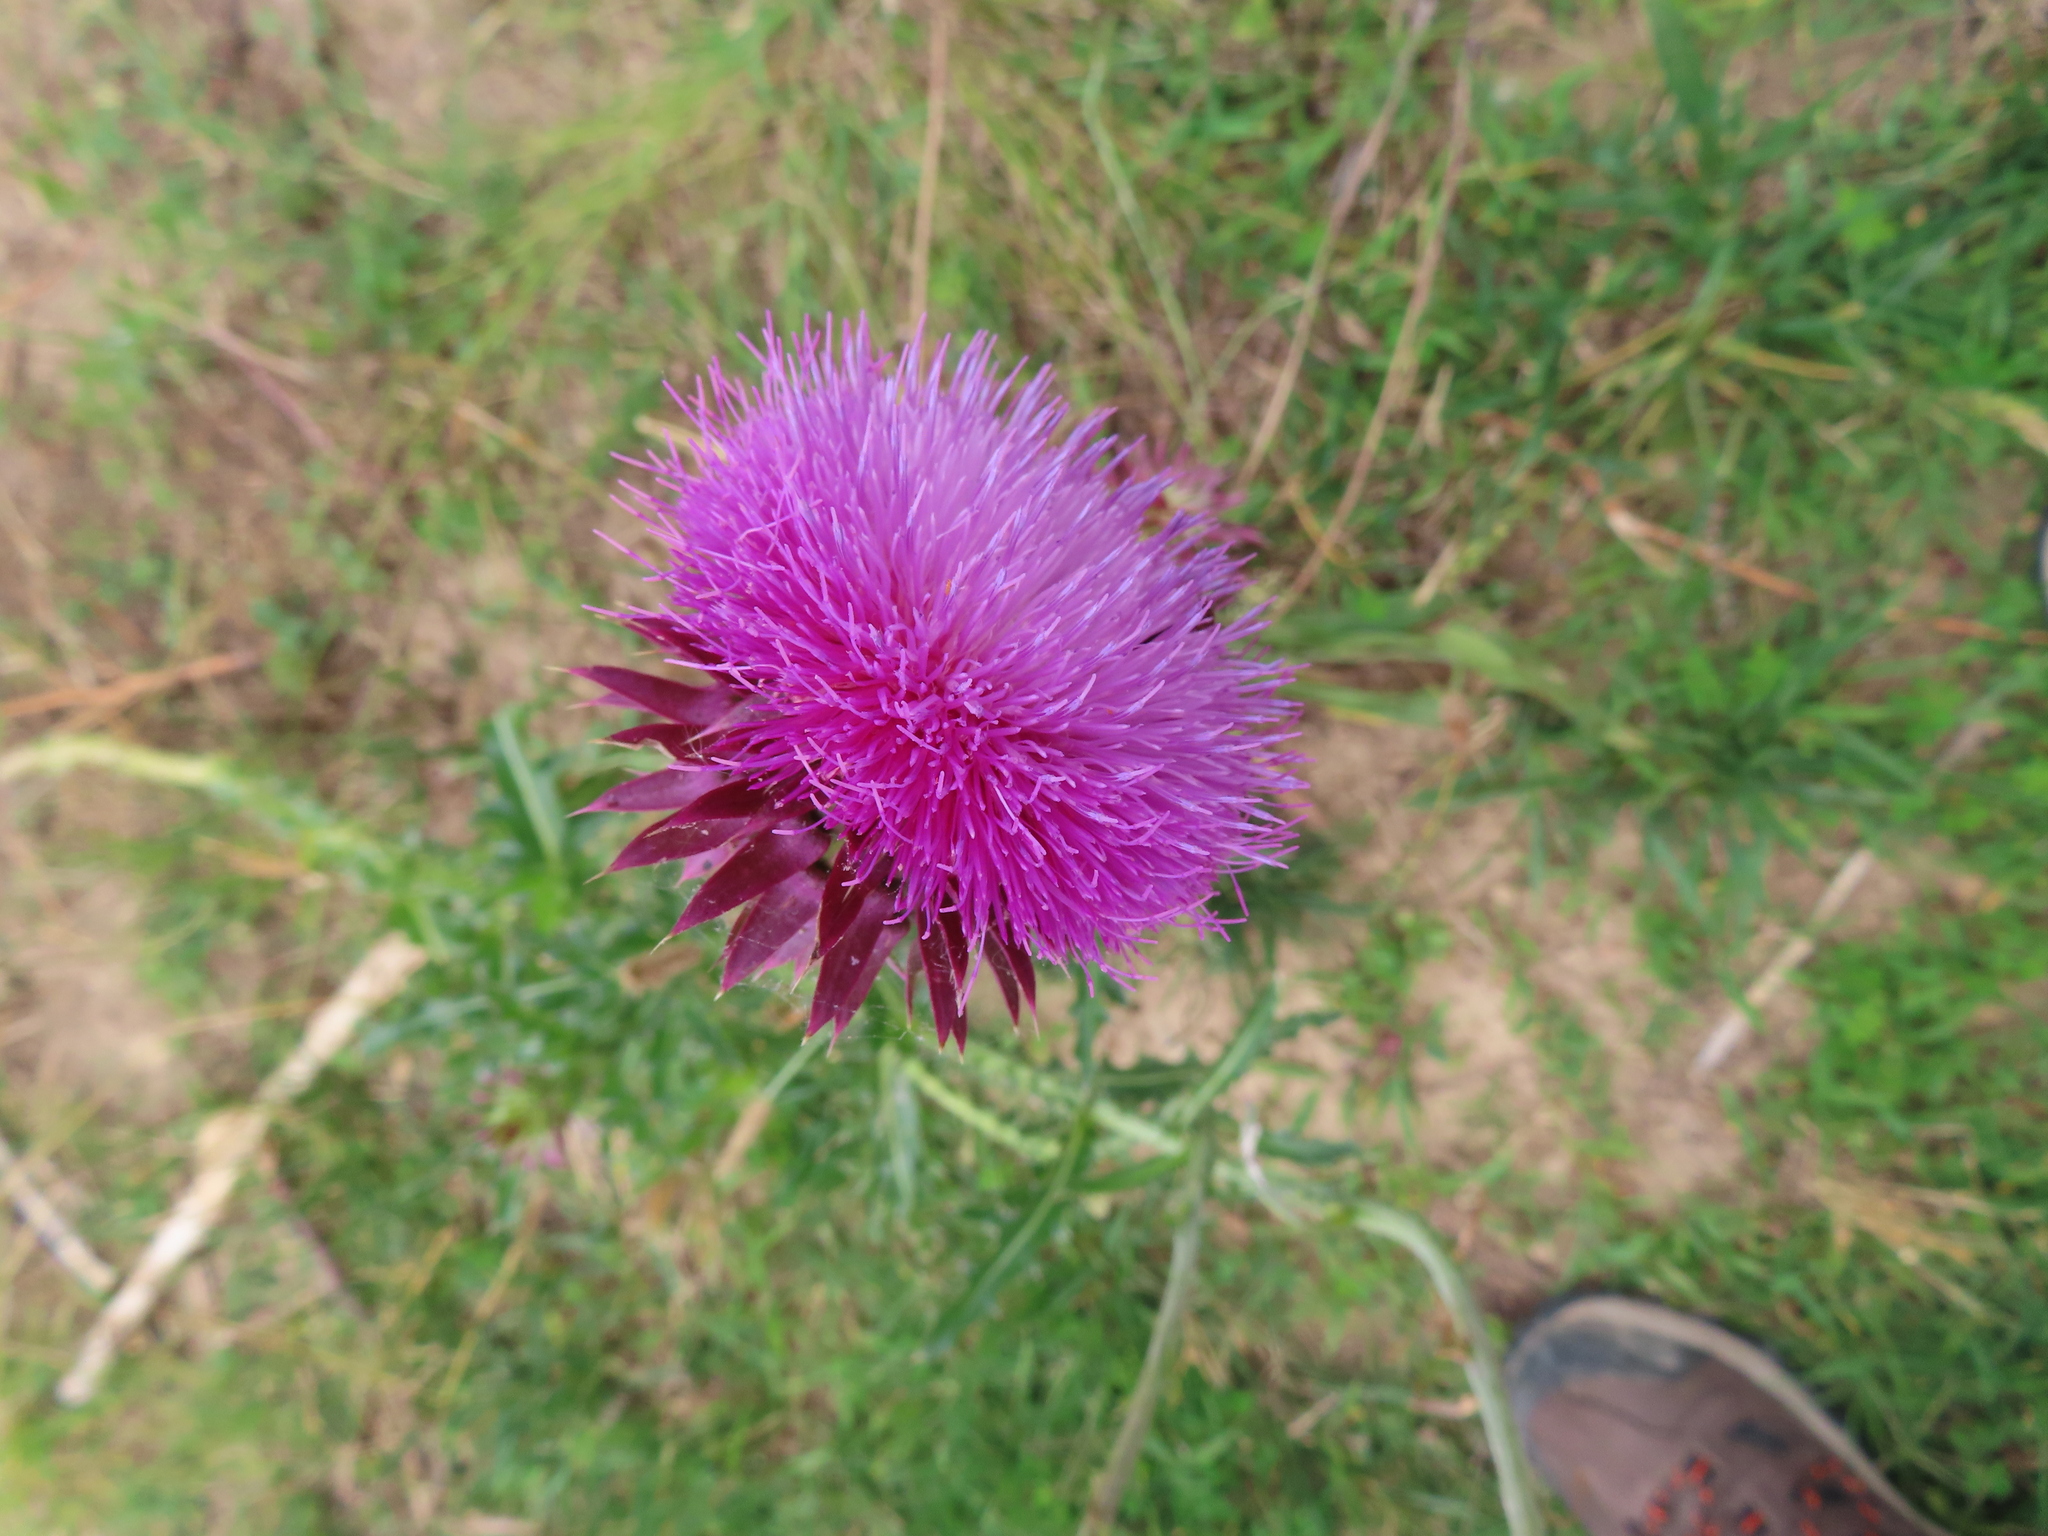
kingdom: Plantae
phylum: Tracheophyta
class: Magnoliopsida
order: Asterales
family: Asteraceae
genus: Carduus
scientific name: Carduus nutans
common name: Musk thistle
